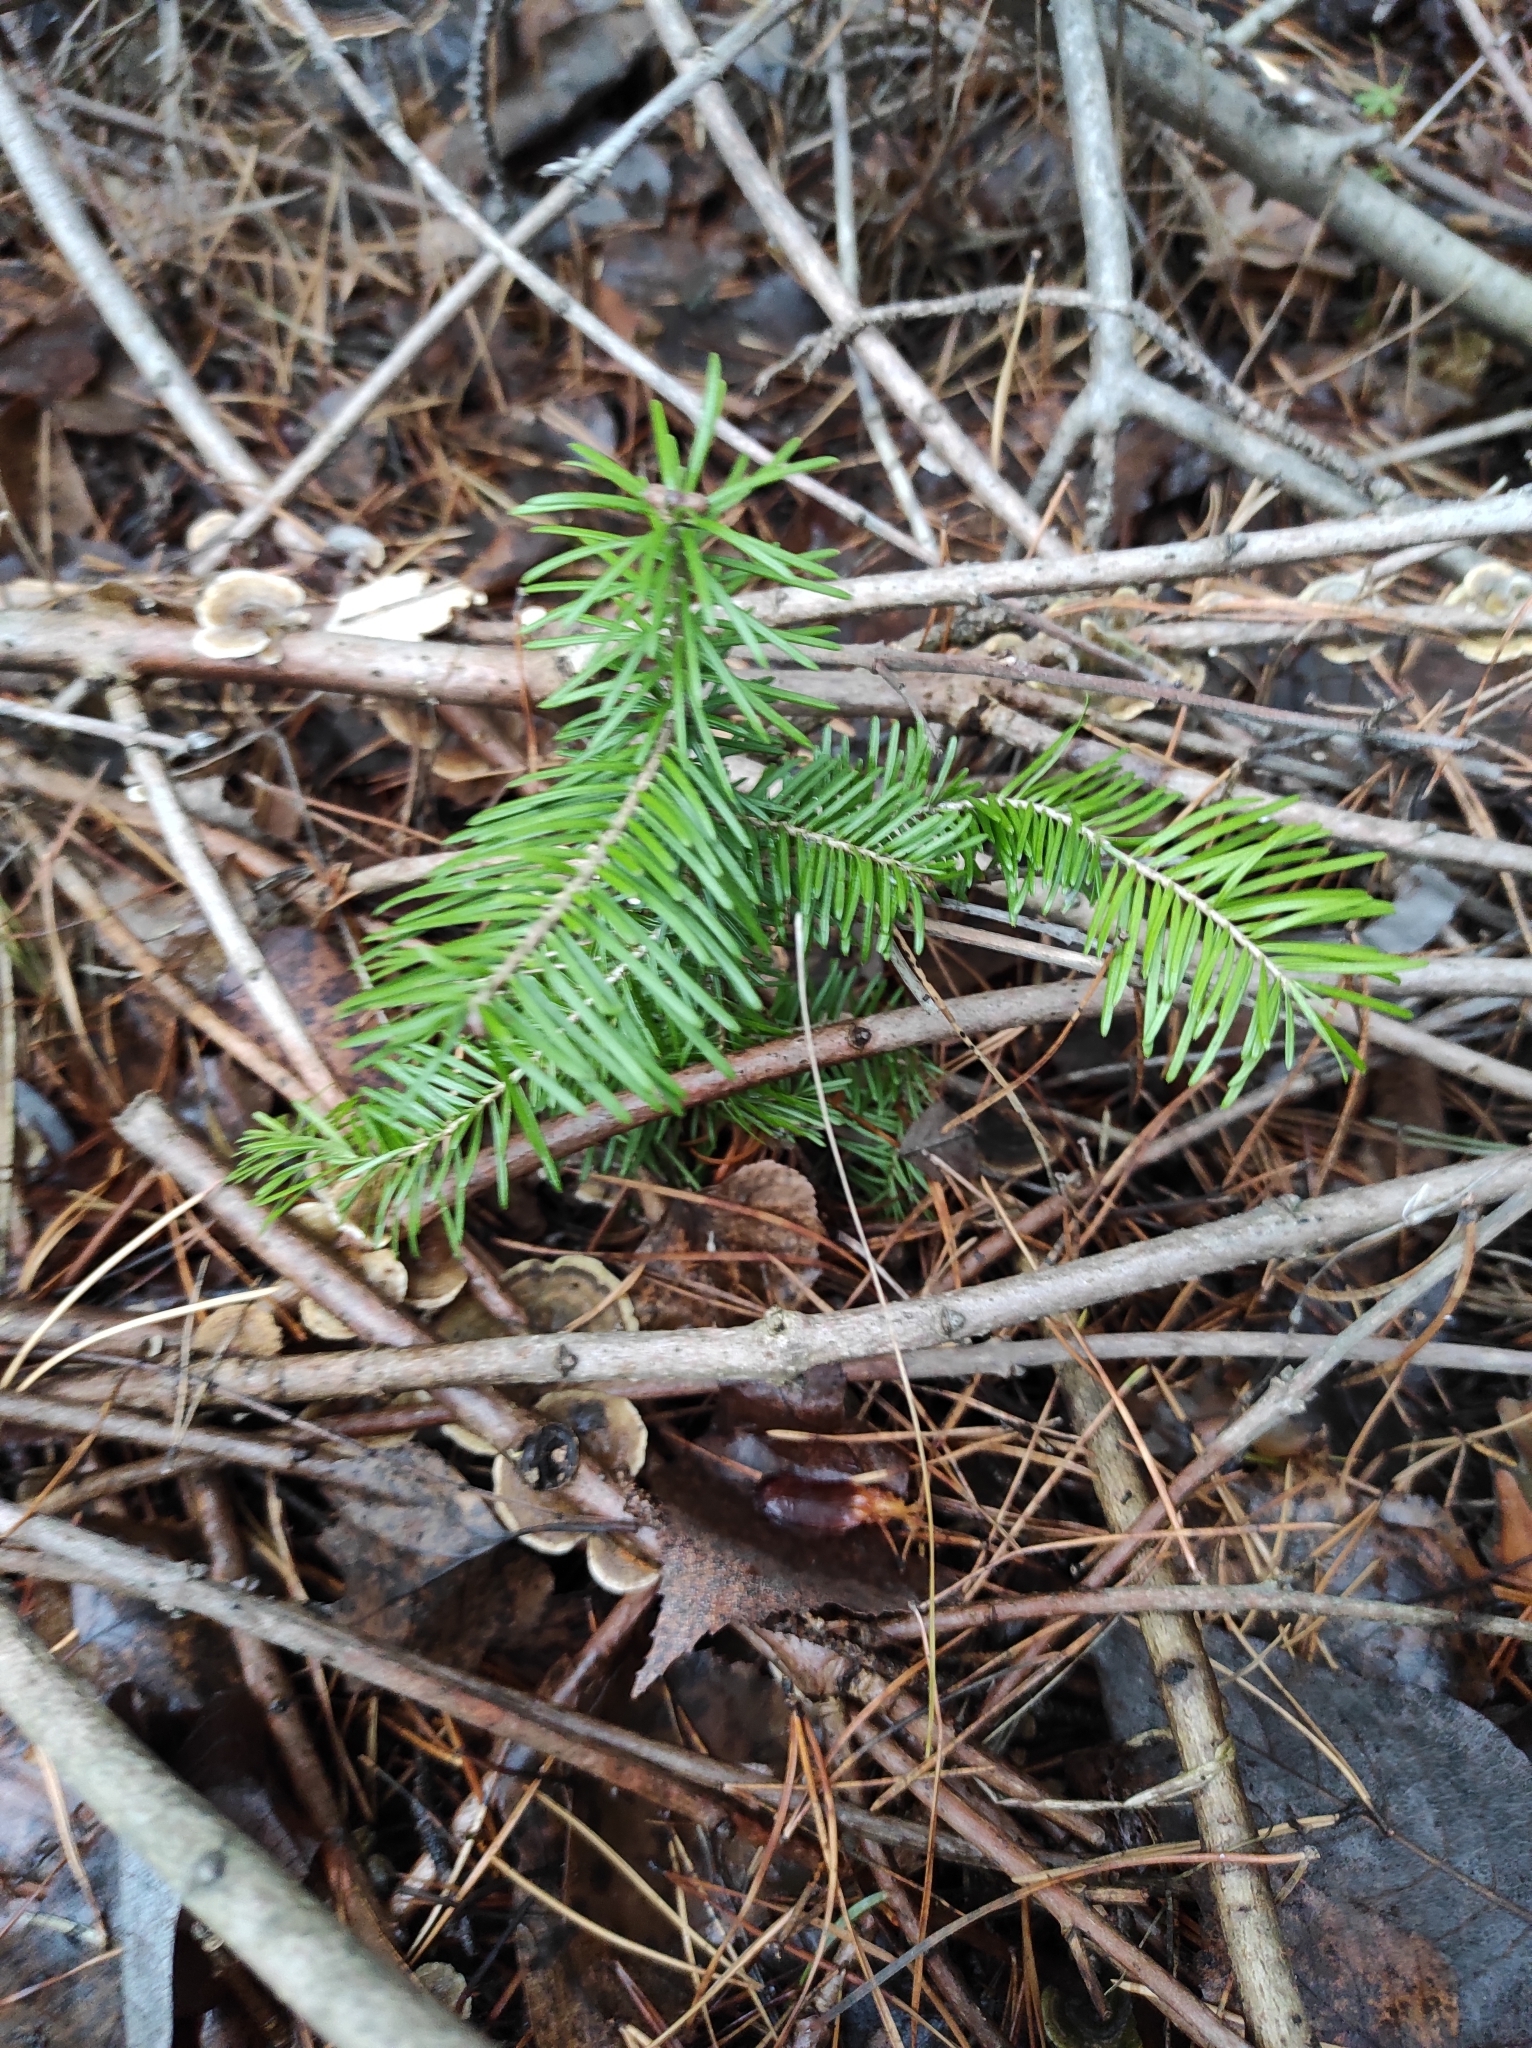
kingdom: Plantae
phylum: Tracheophyta
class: Pinopsida
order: Pinales
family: Pinaceae
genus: Abies
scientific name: Abies sibirica
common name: Siberian fir
